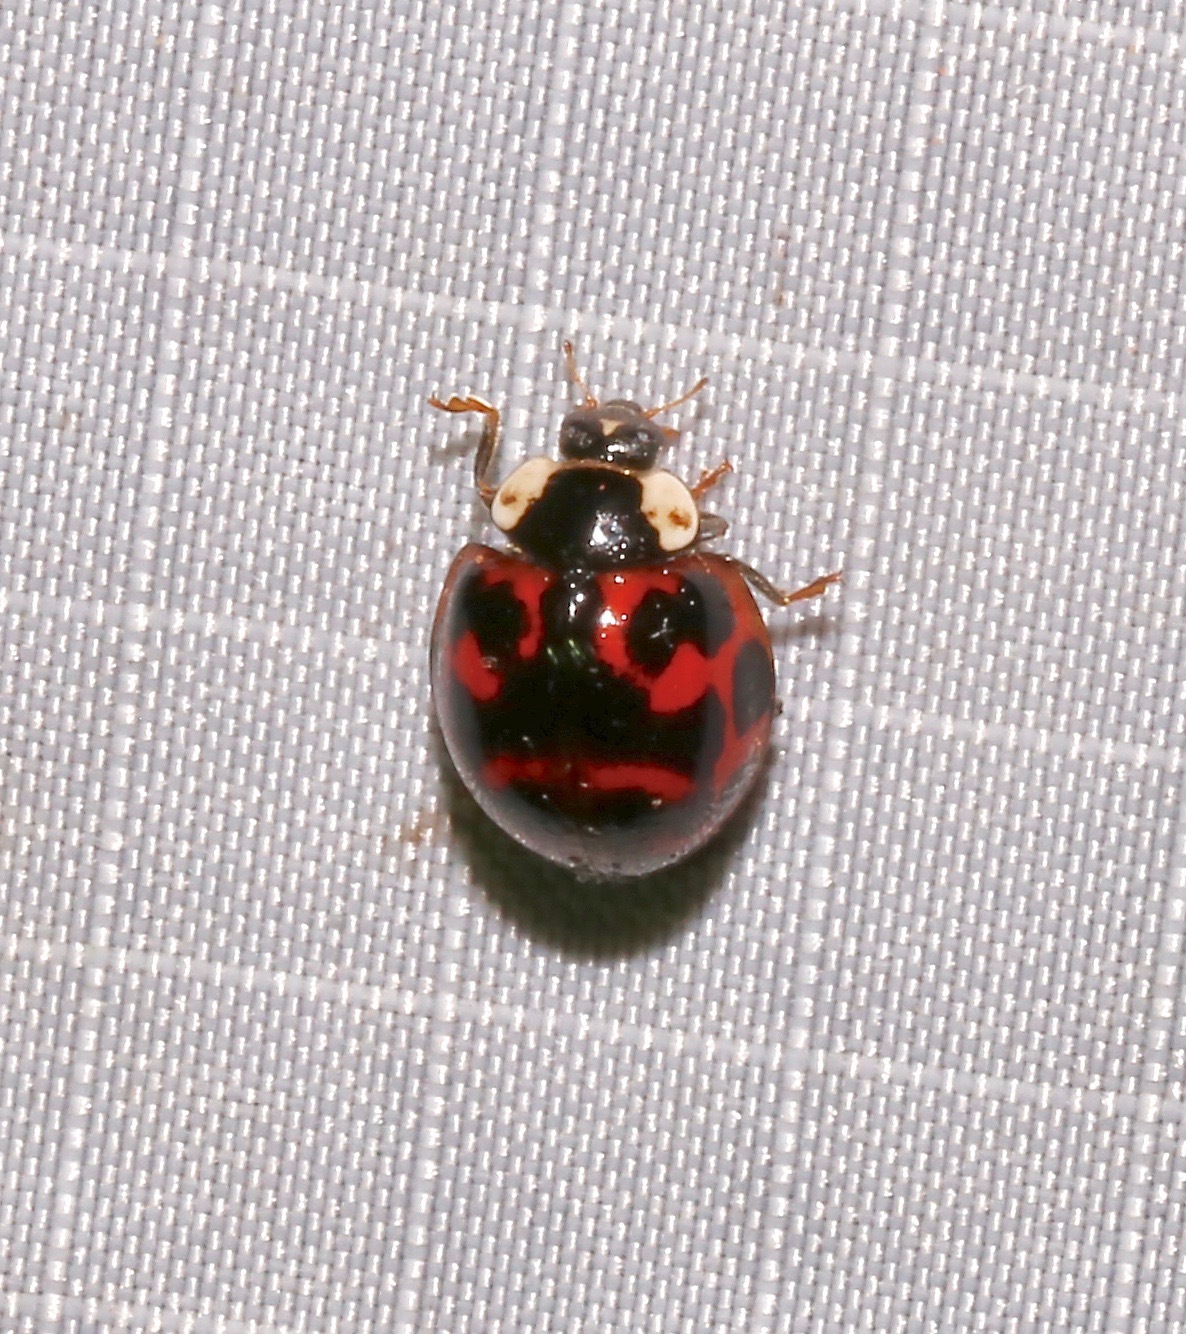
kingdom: Animalia
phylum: Arthropoda
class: Insecta
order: Coleoptera
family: Coccinellidae
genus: Harmonia
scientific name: Harmonia axyridis
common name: Harlequin ladybird
